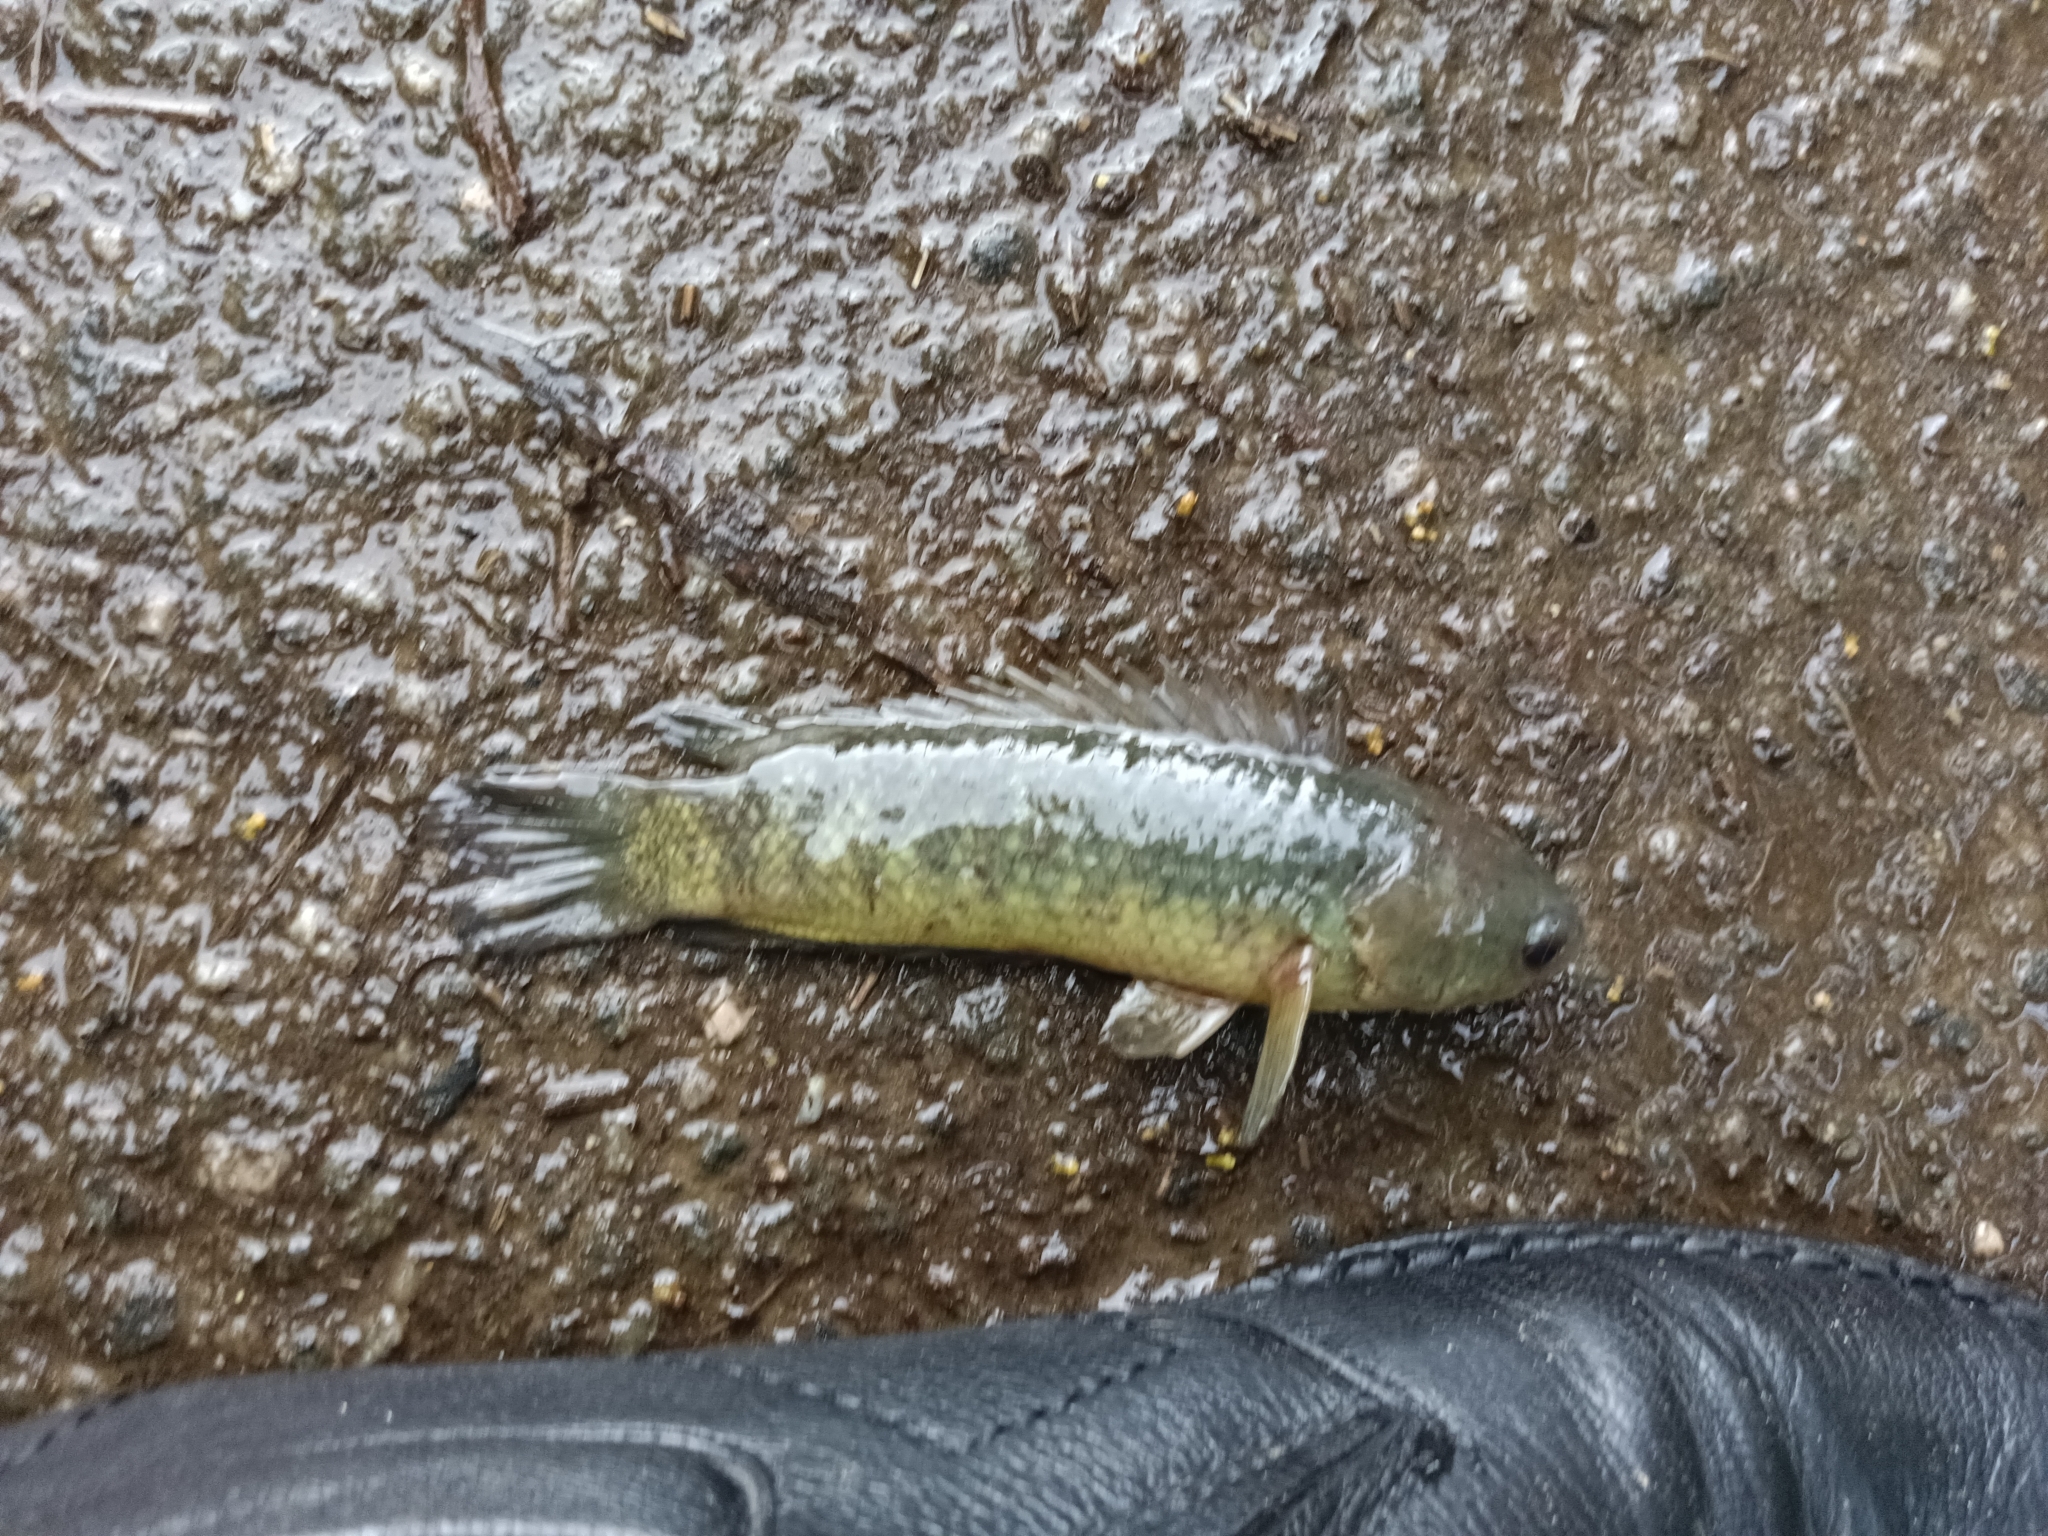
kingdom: Animalia
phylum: Chordata
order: Perciformes
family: Anabantidae
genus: Anabas
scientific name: Anabas testudineus
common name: Climbing perch
